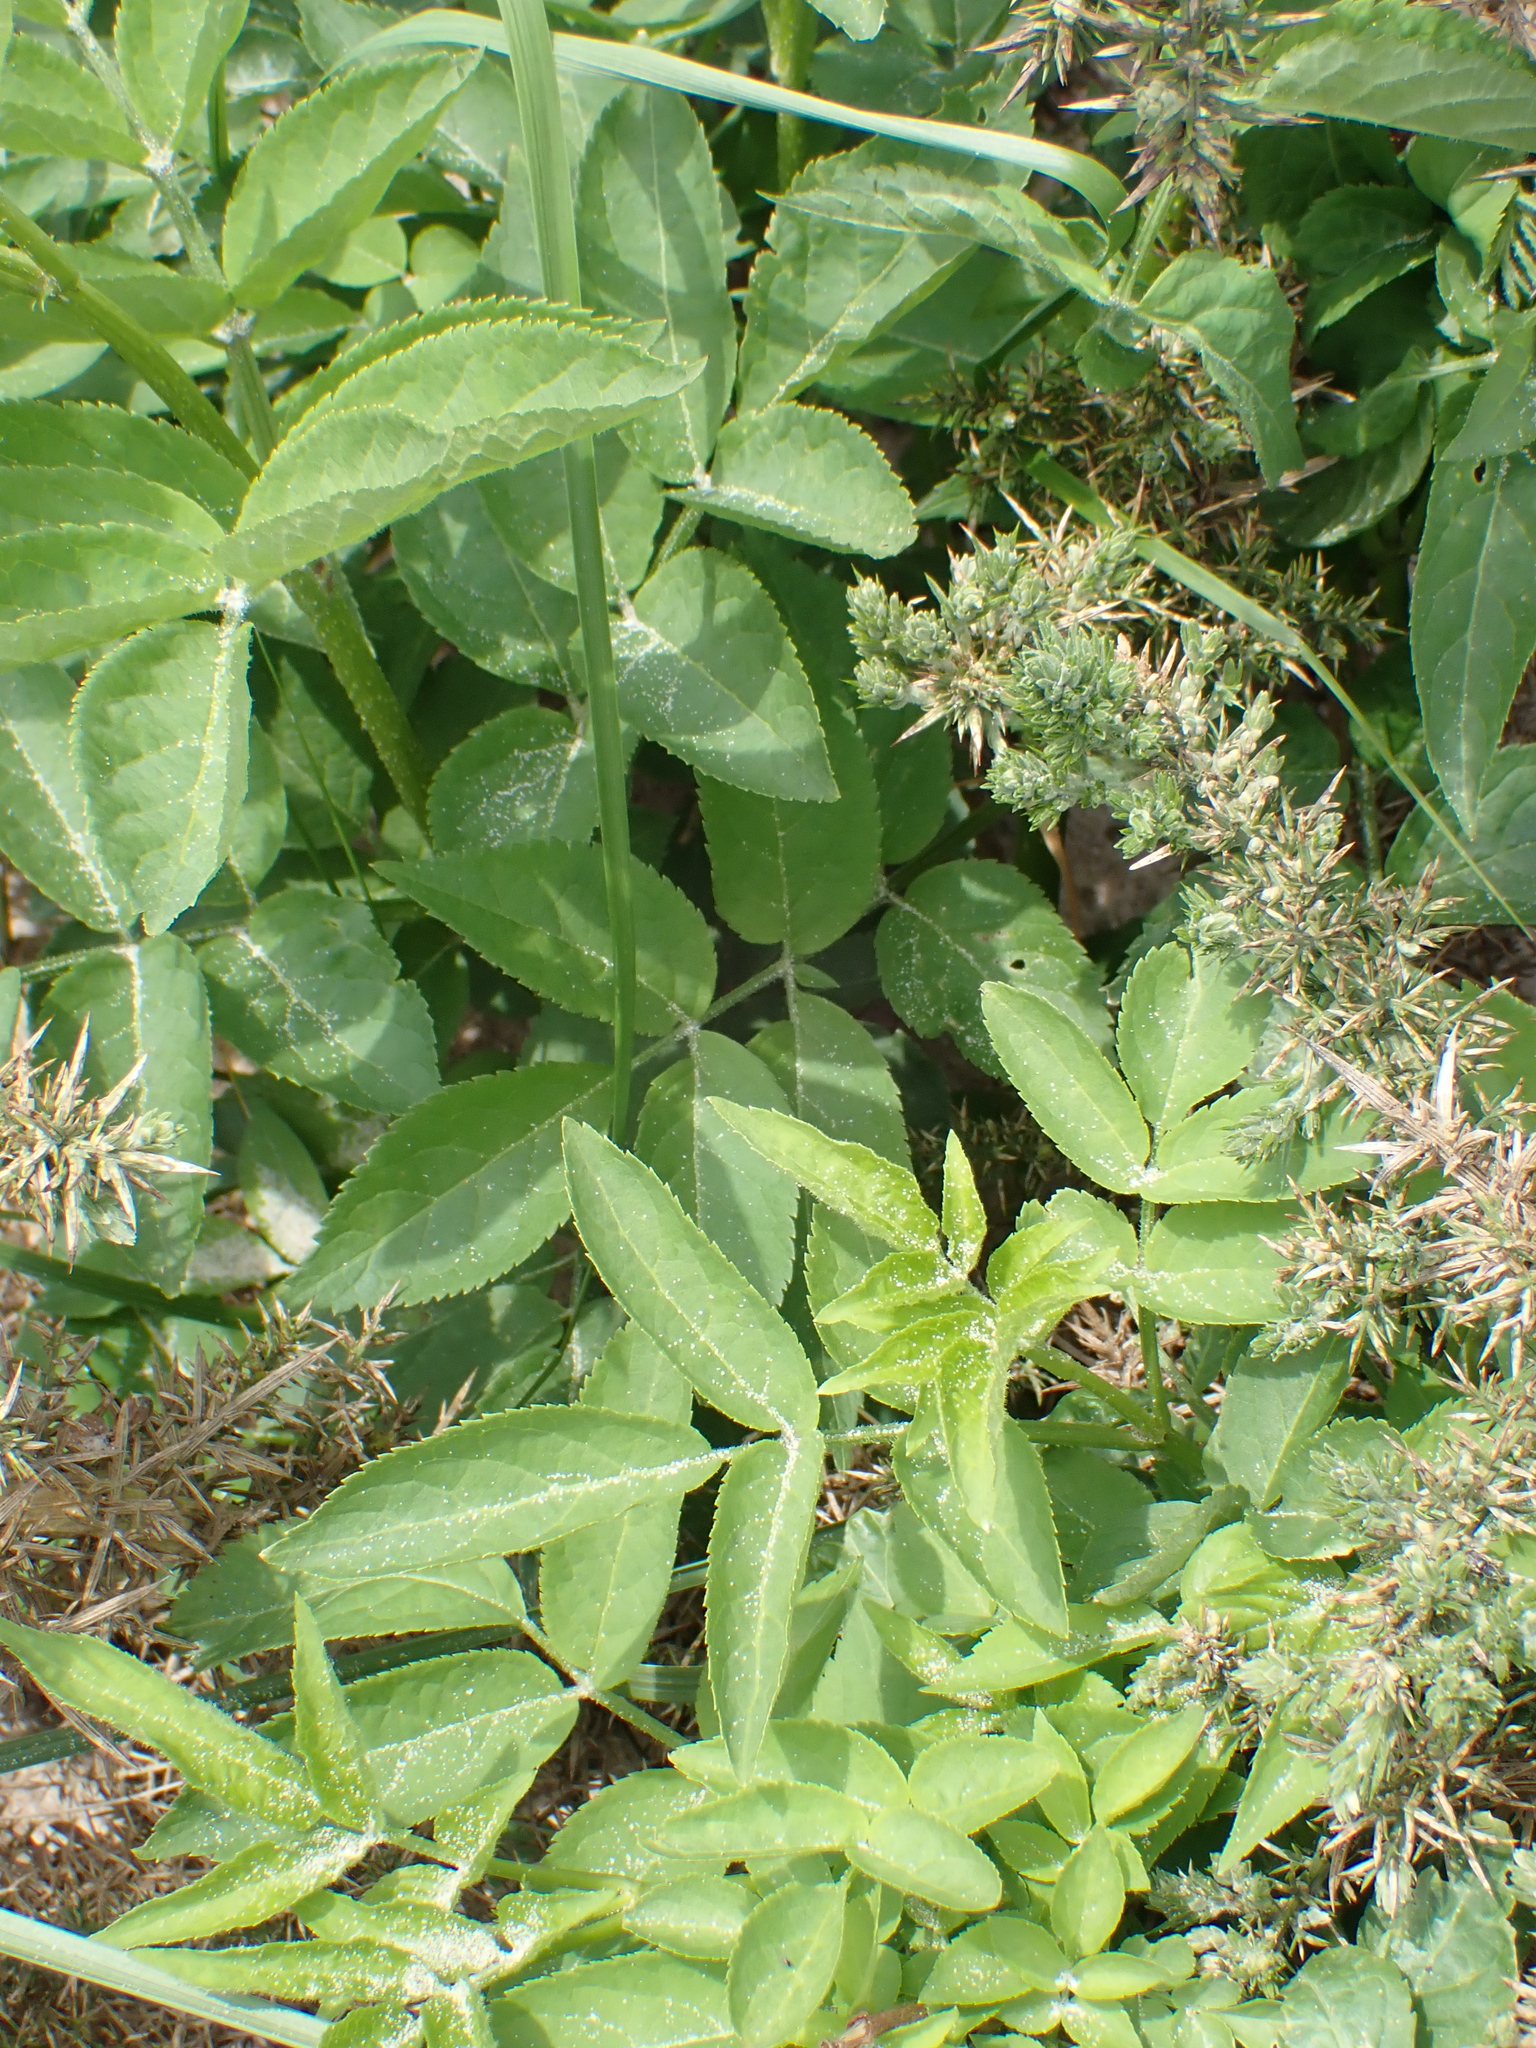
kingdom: Plantae
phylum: Tracheophyta
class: Magnoliopsida
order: Dipsacales
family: Viburnaceae
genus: Sambucus
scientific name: Sambucus nigra
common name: Elder
